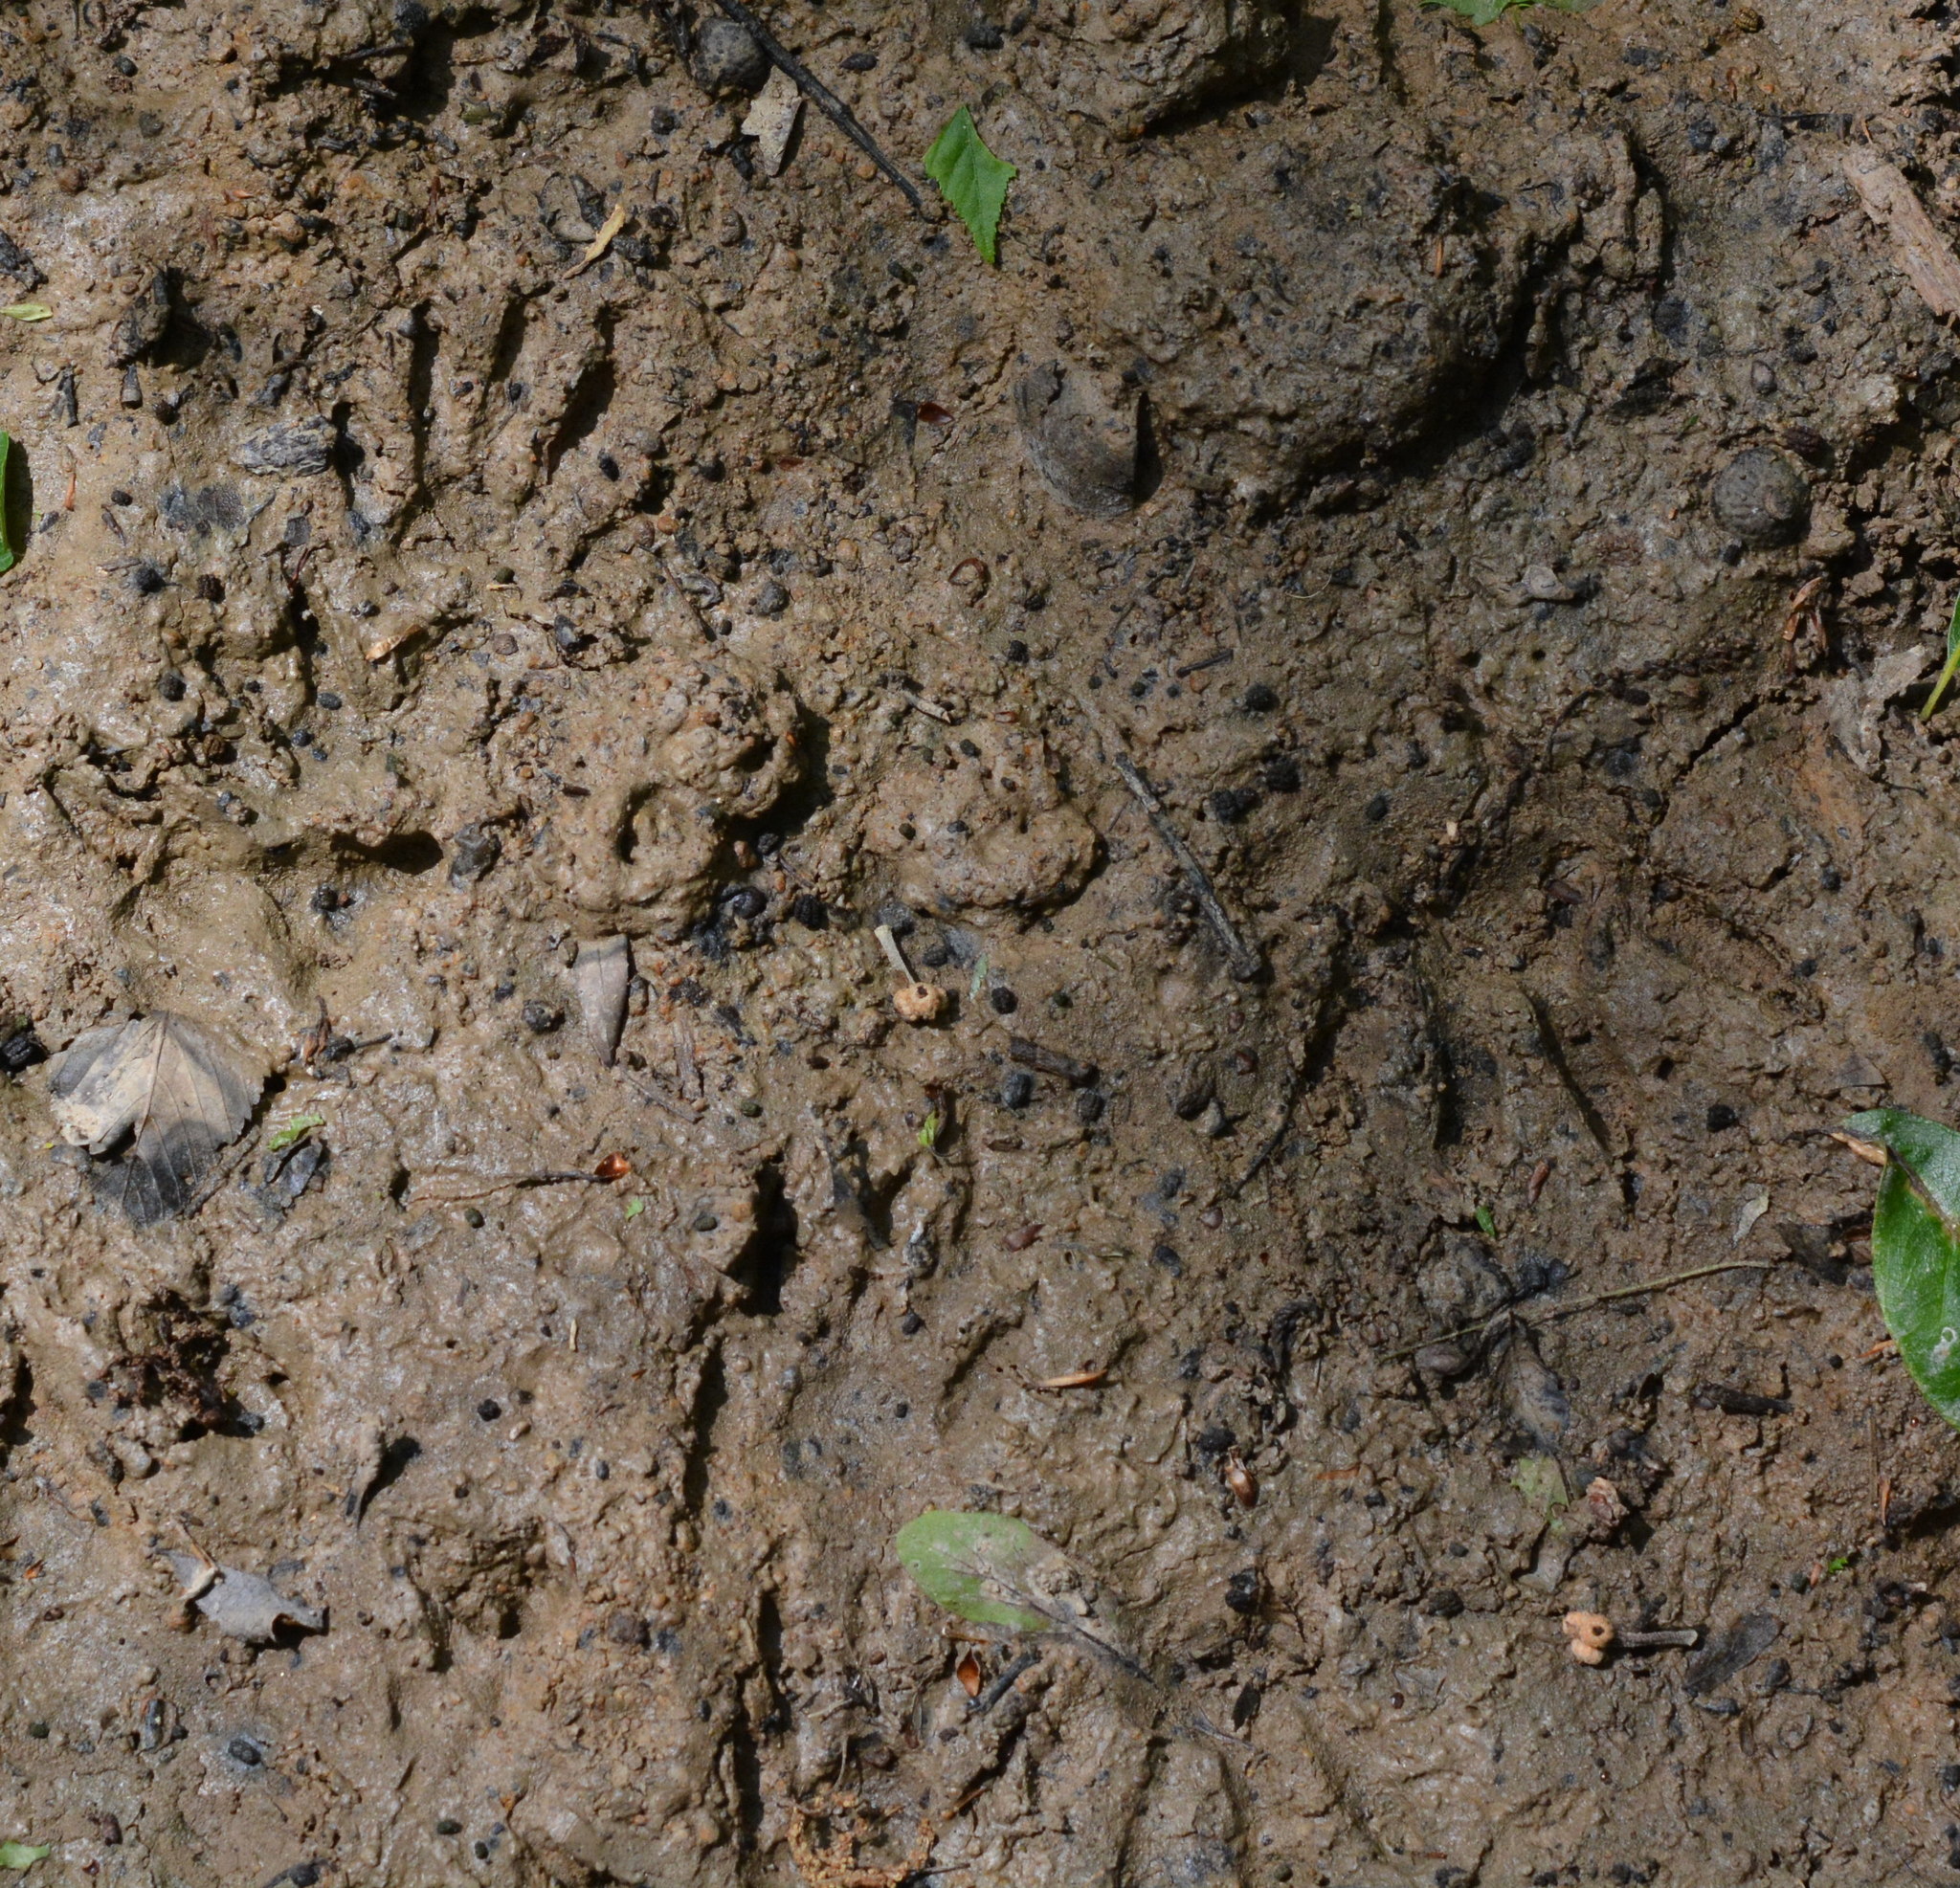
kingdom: Animalia
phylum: Chordata
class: Mammalia
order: Carnivora
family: Procyonidae
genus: Procyon
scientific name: Procyon lotor
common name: Raccoon
